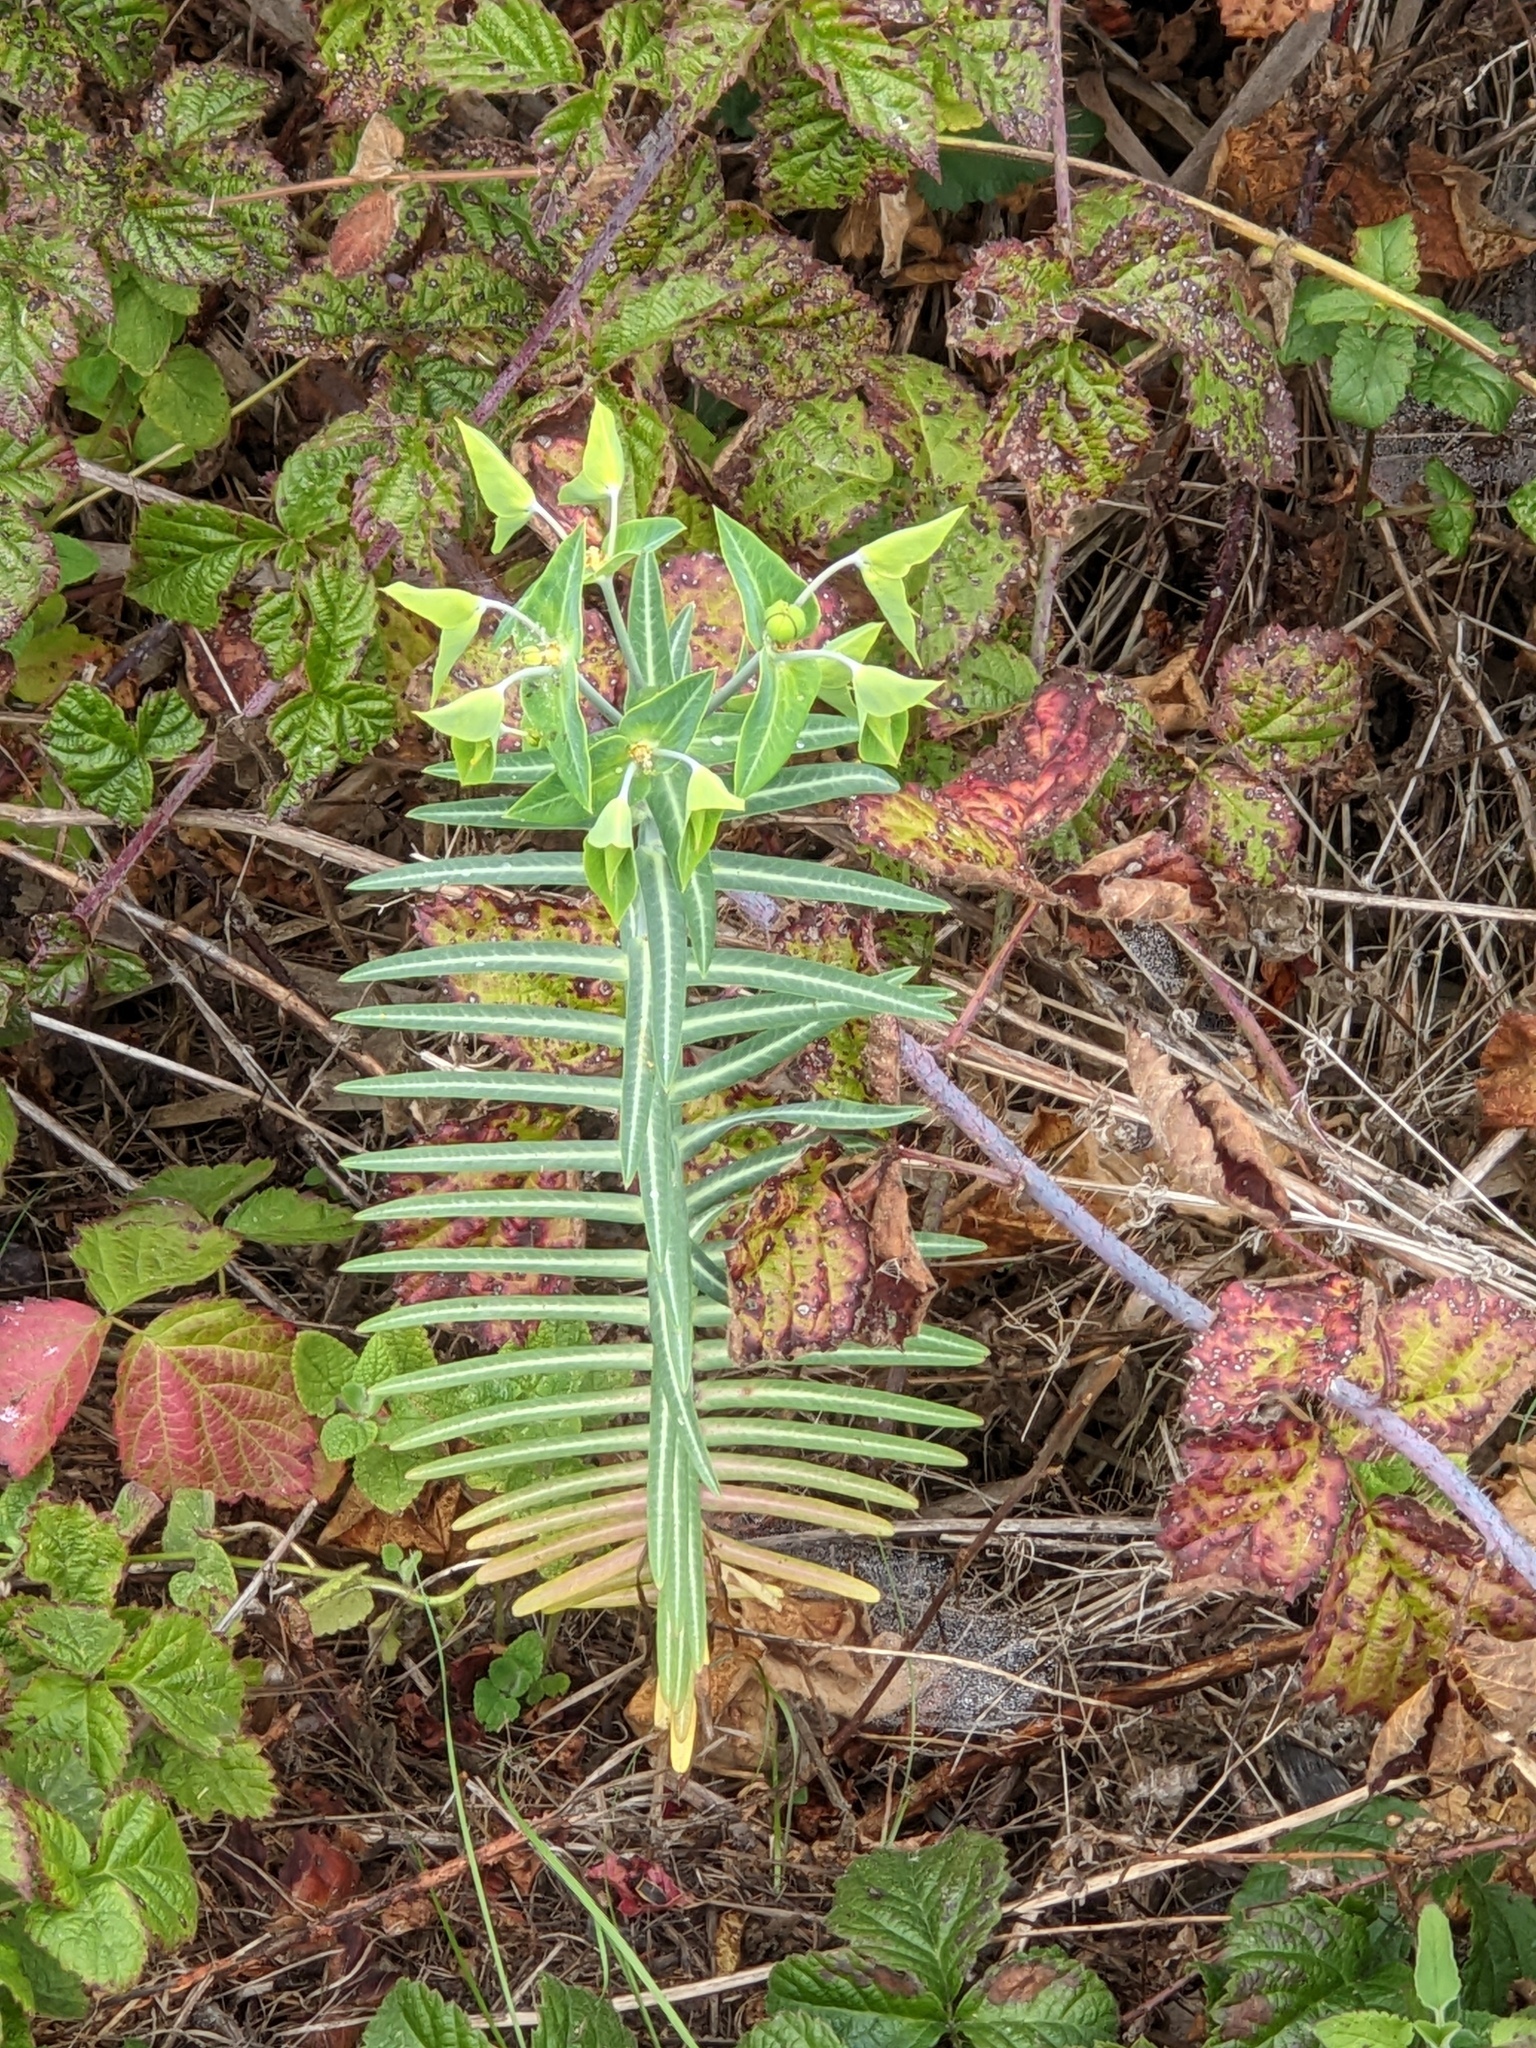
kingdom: Plantae
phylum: Tracheophyta
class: Magnoliopsida
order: Malpighiales
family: Euphorbiaceae
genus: Euphorbia
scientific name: Euphorbia lathyris
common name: Caper spurge
